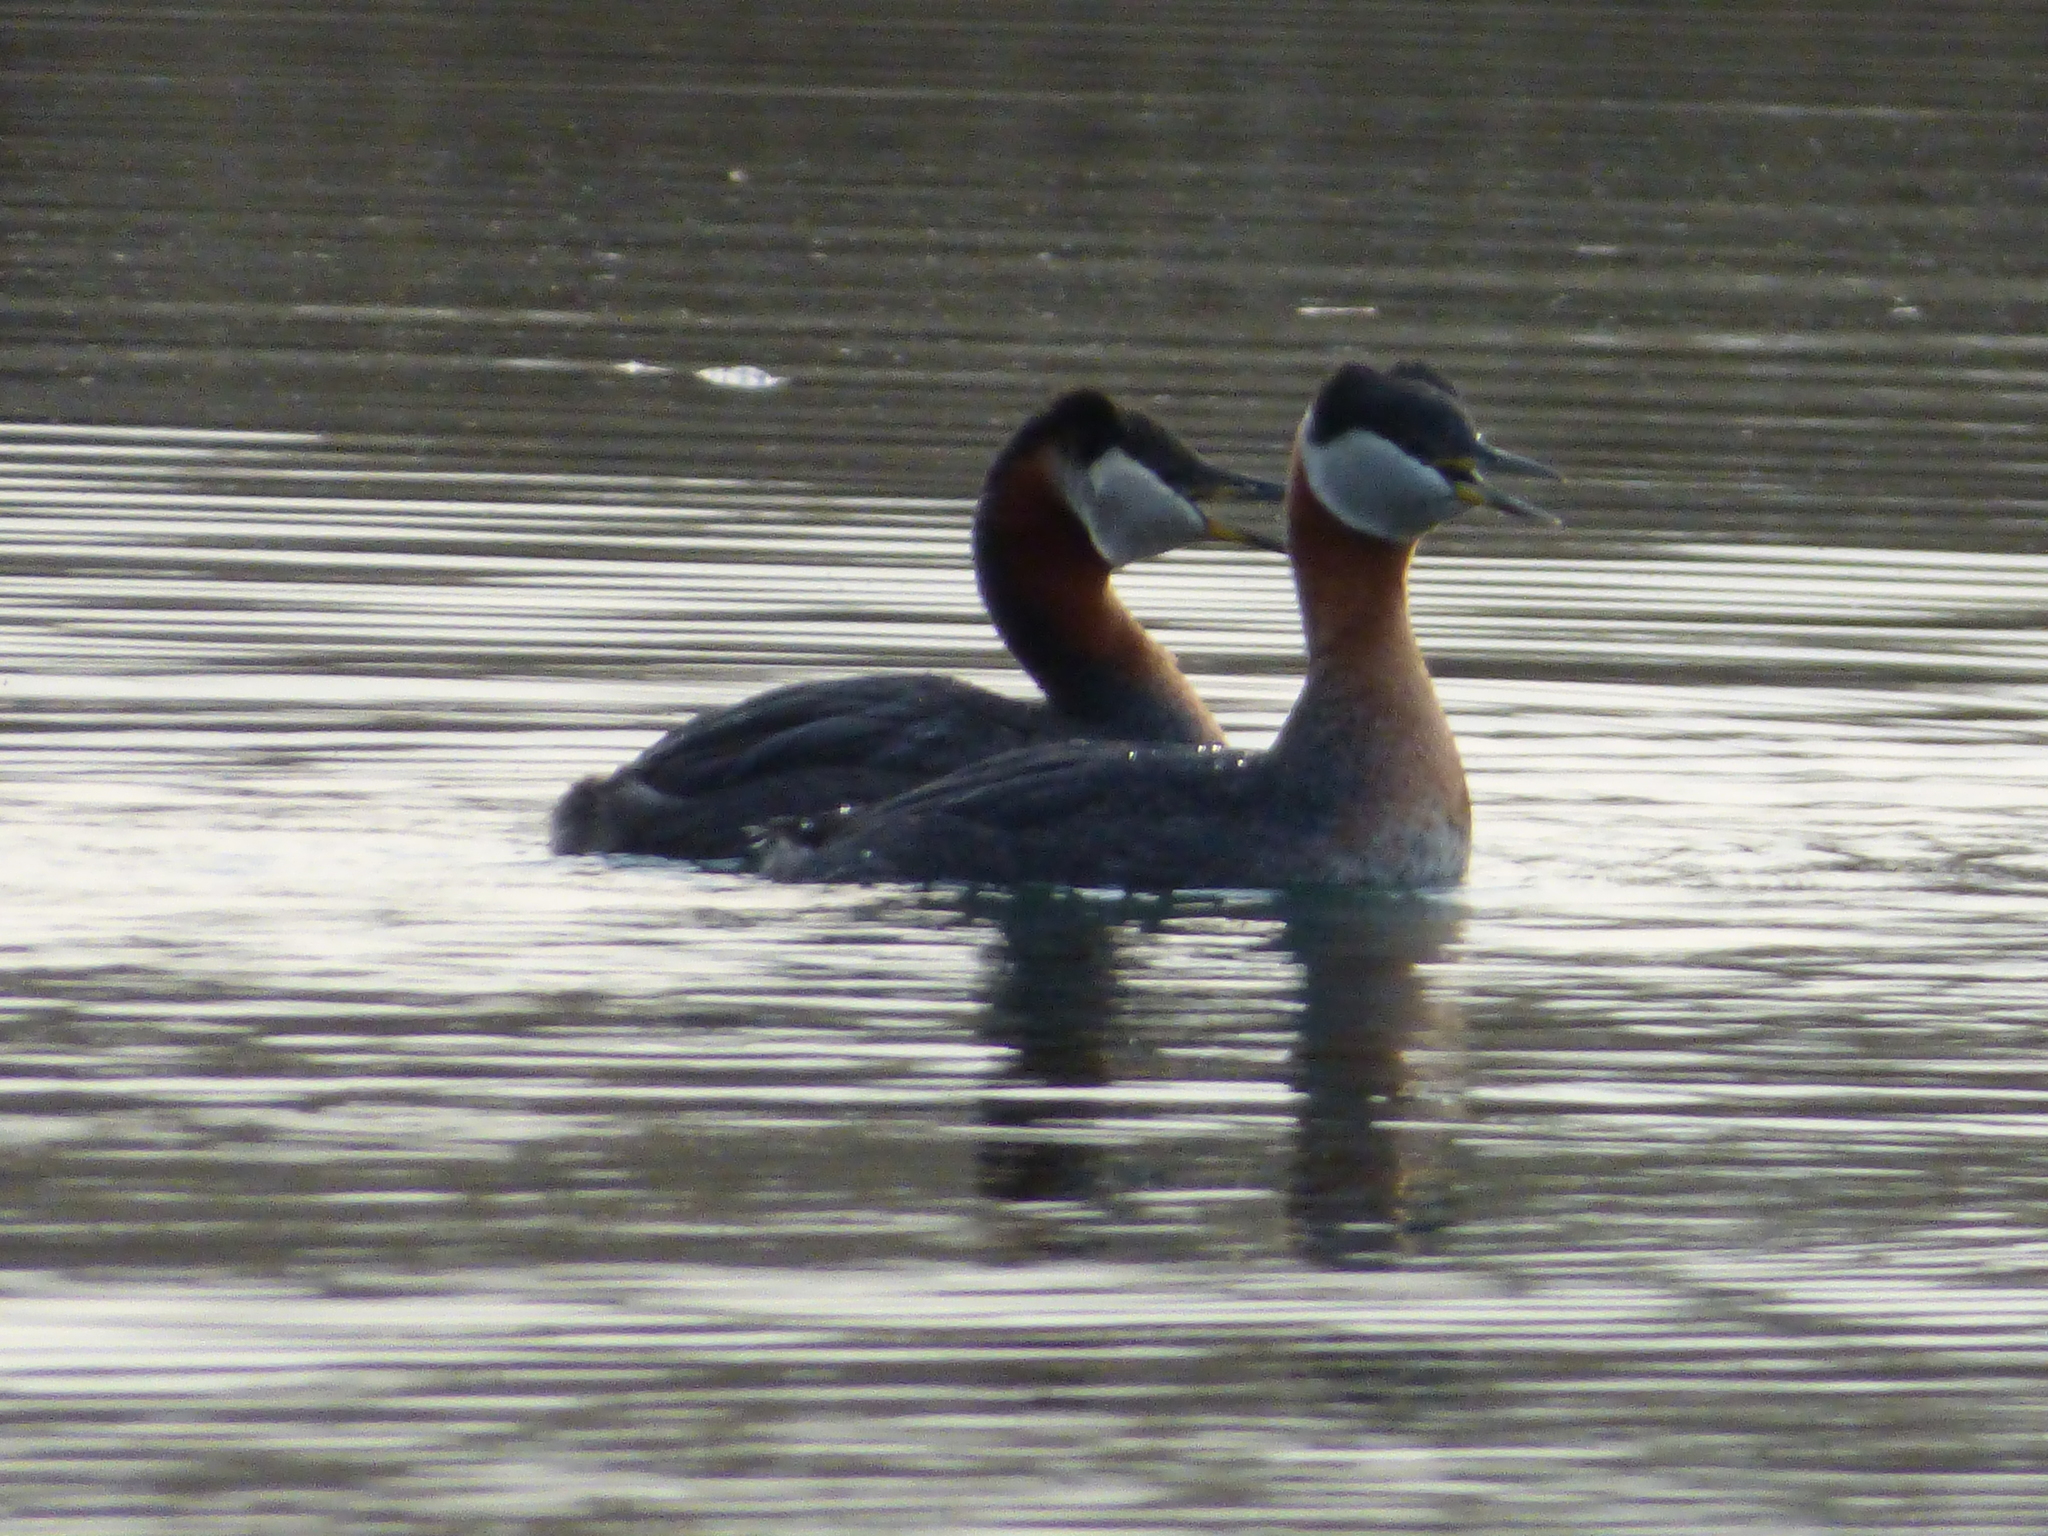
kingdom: Animalia
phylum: Chordata
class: Aves
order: Podicipediformes
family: Podicipedidae
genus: Podiceps
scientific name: Podiceps grisegena
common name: Red-necked grebe
